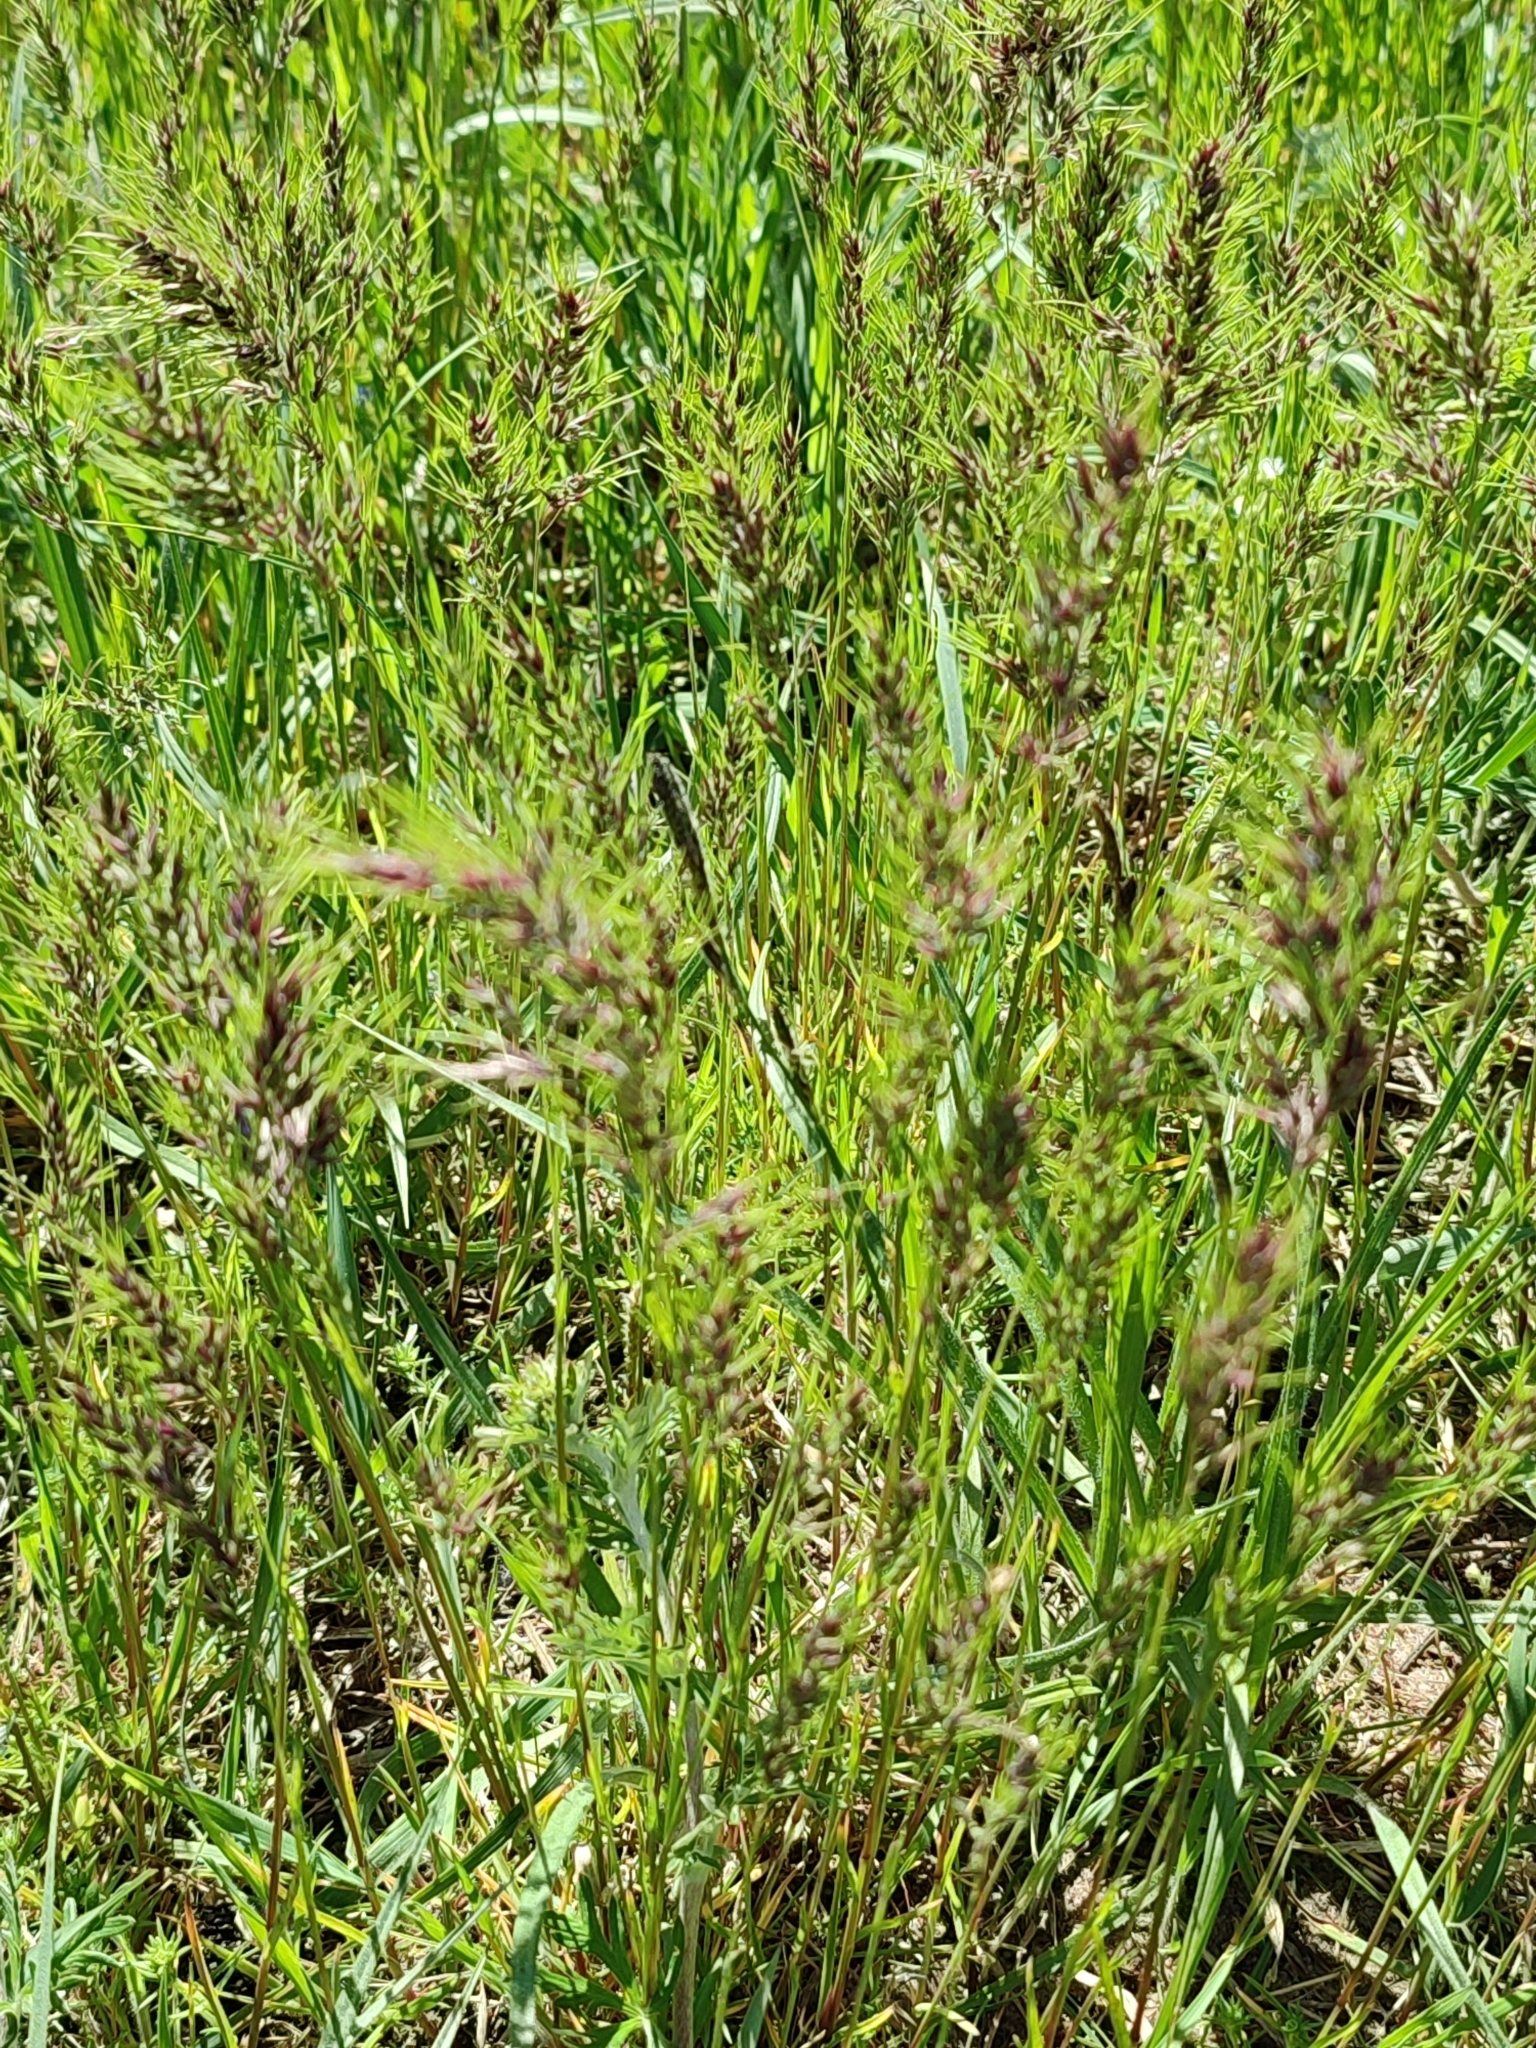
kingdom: Plantae
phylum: Tracheophyta
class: Liliopsida
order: Poales
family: Poaceae
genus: Poa
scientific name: Poa bulbosa
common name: Bulbous bluegrass
